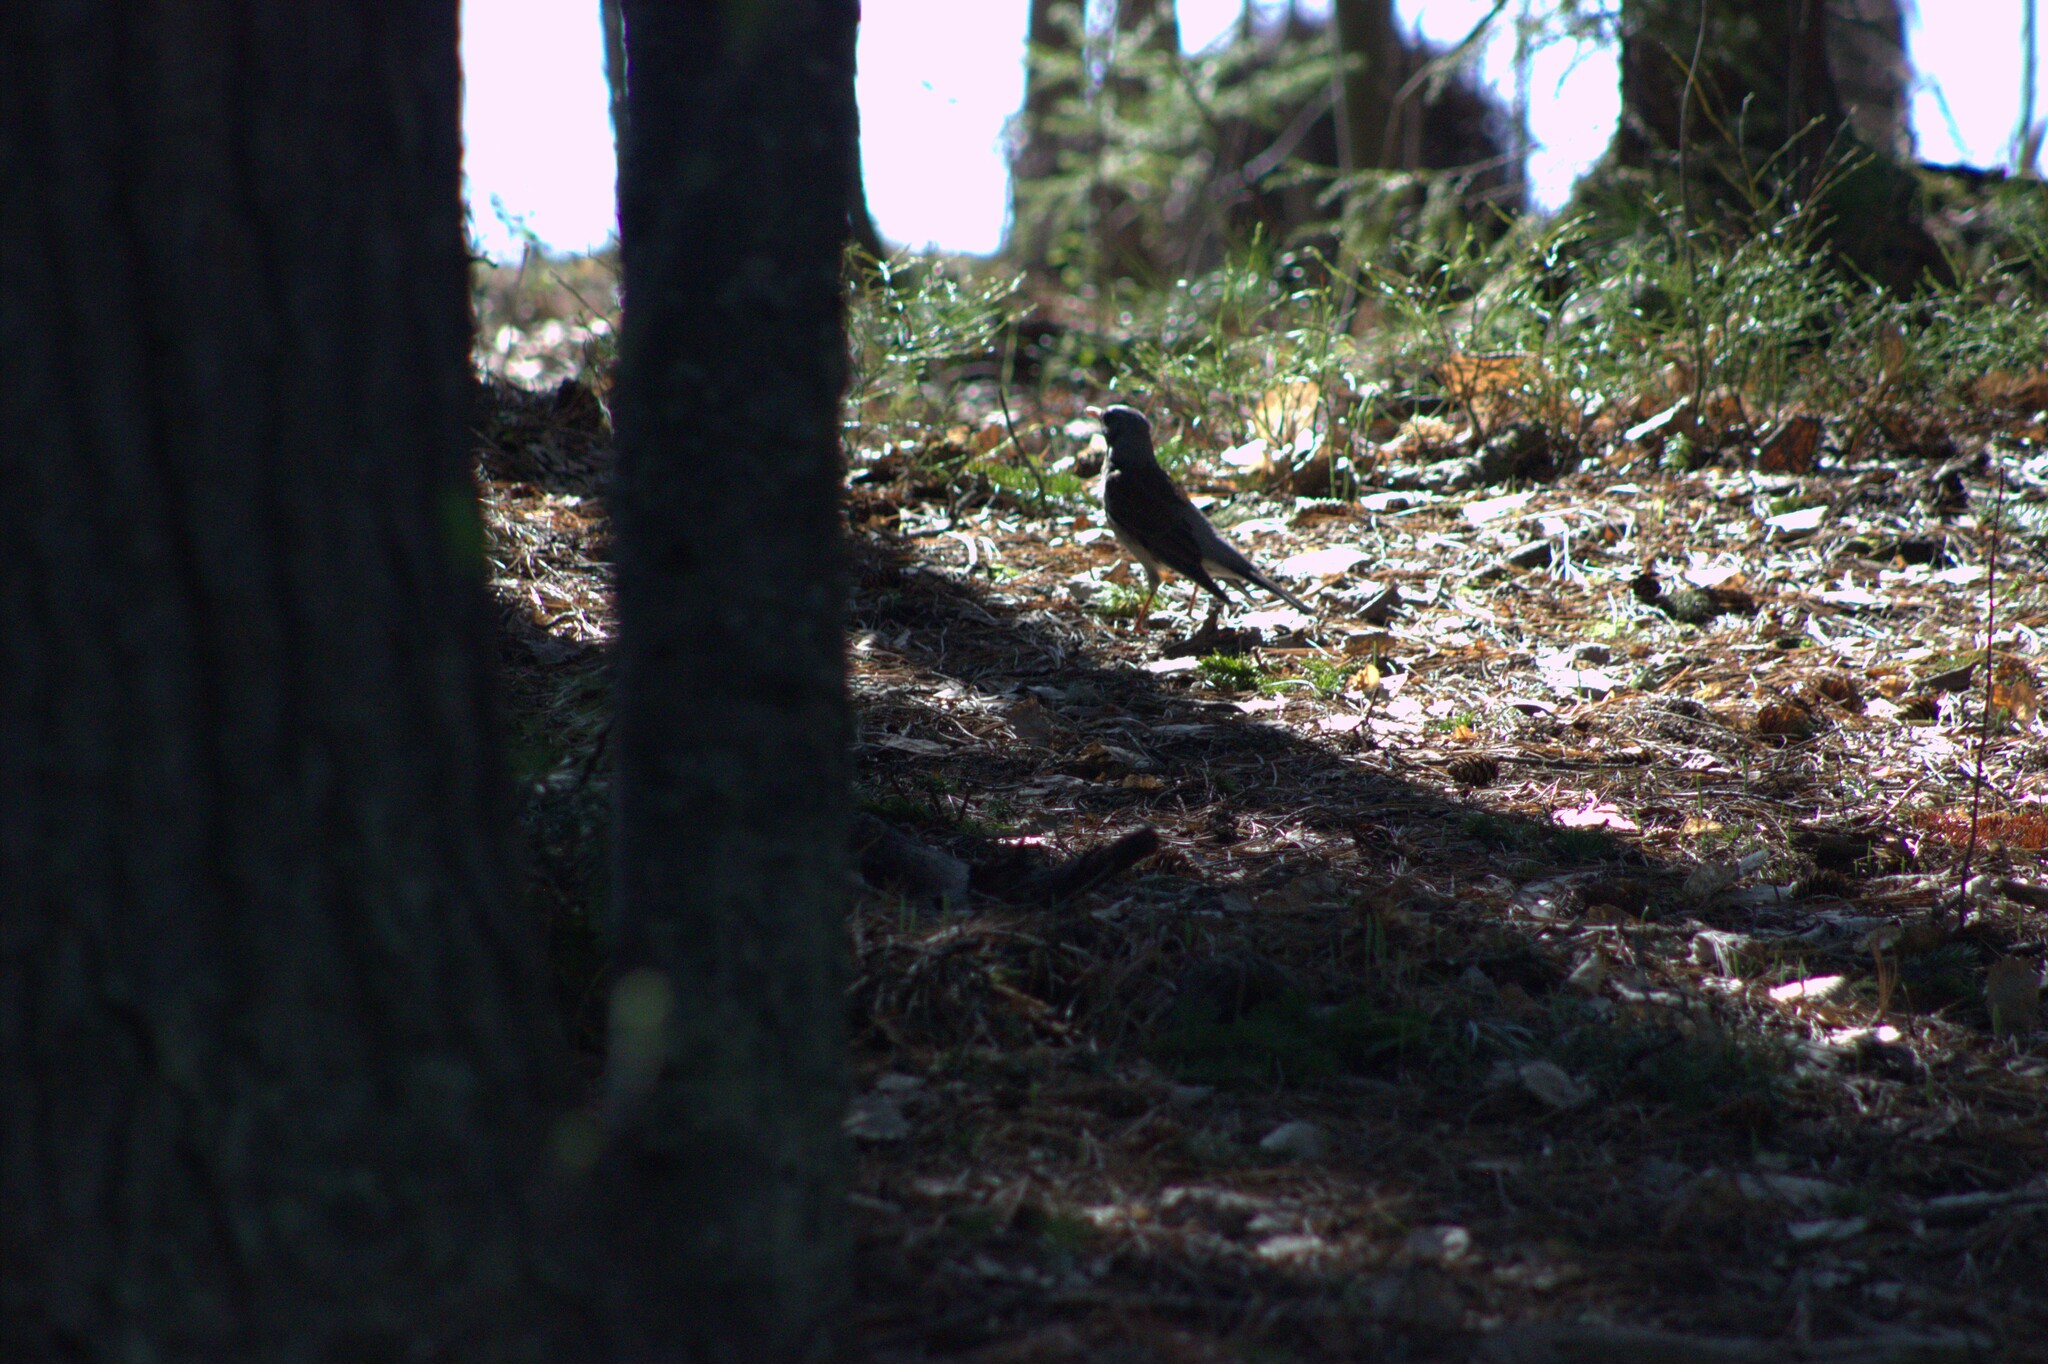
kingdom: Animalia
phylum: Chordata
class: Aves
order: Passeriformes
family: Turdidae
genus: Turdus
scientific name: Turdus pilaris
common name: Fieldfare
